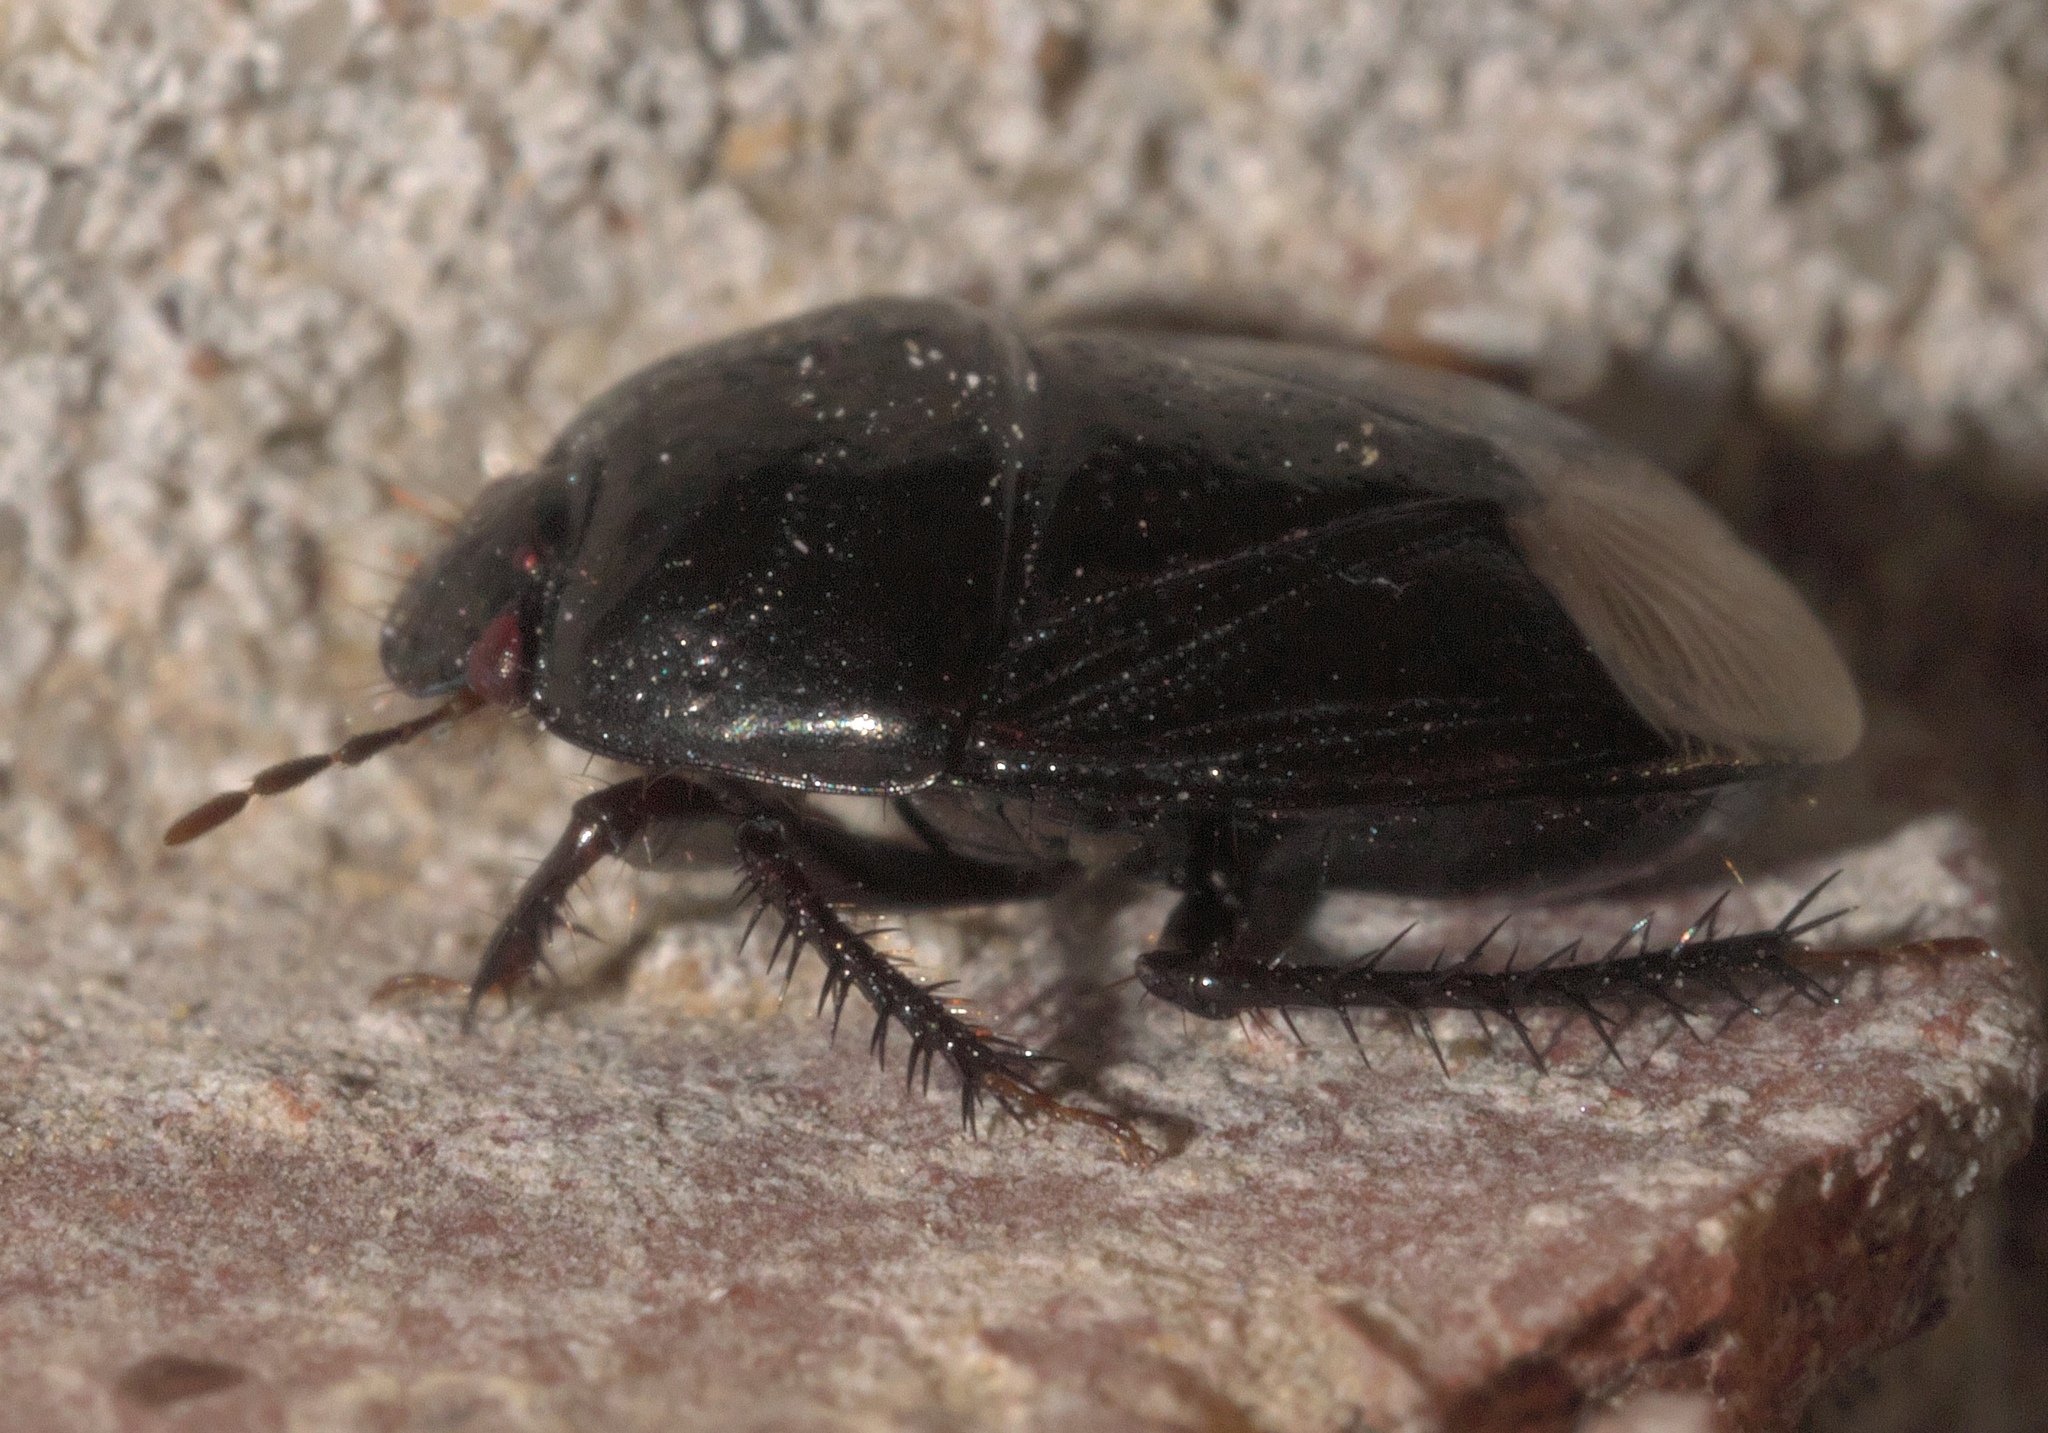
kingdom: Animalia
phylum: Arthropoda
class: Insecta
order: Hemiptera
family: Cydnidae
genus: Pangaeus
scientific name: Pangaeus bilineatus
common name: Burrower bug
